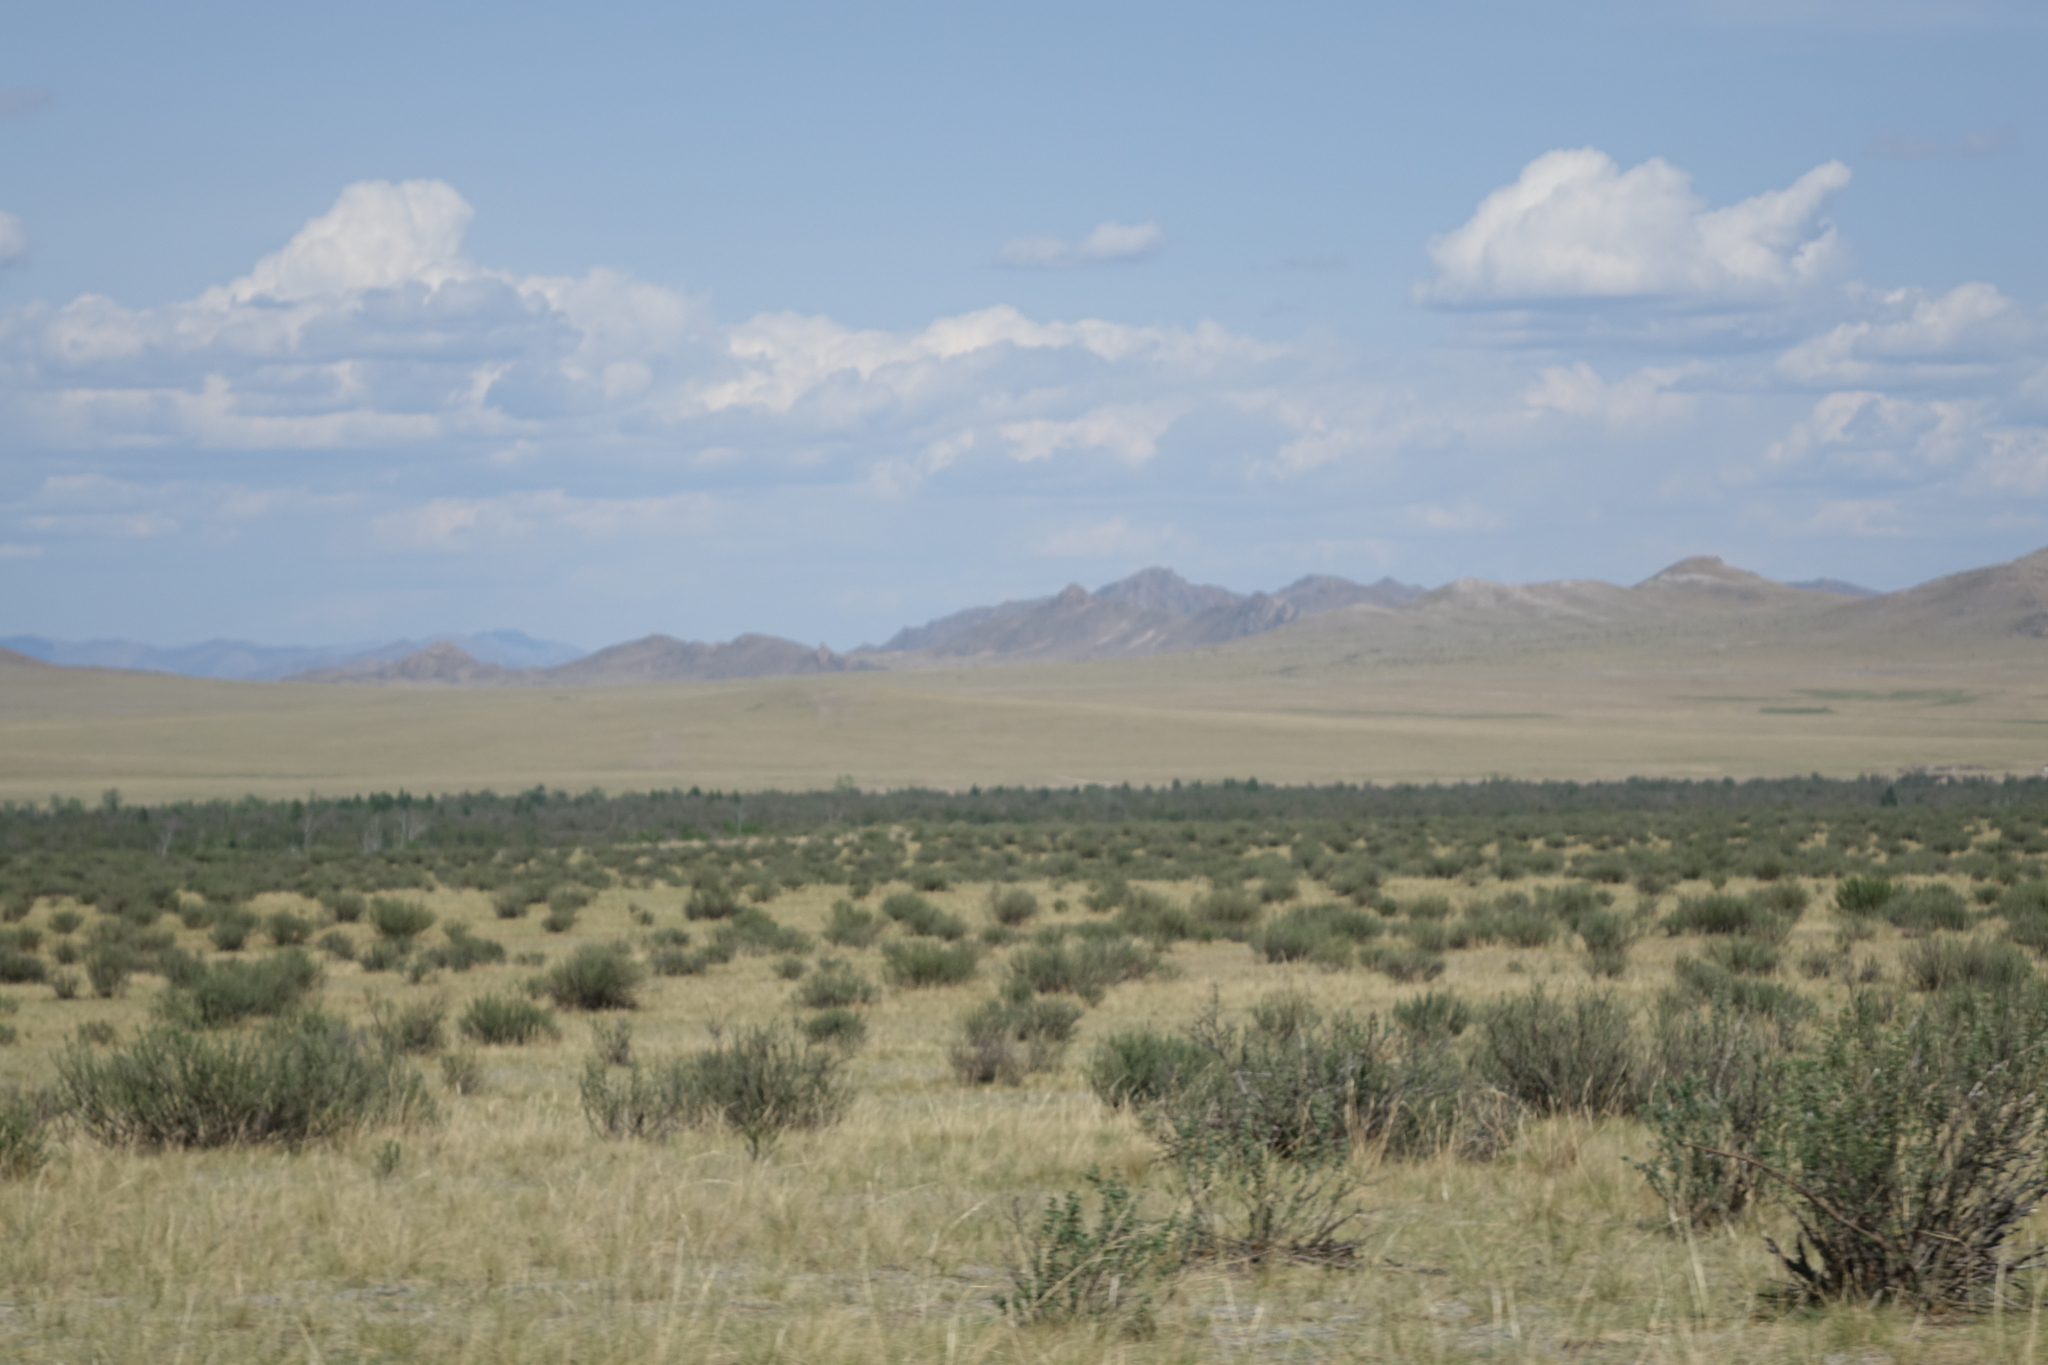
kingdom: Plantae
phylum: Tracheophyta
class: Magnoliopsida
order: Fabales
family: Fabaceae
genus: Caragana
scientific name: Caragana bungei
